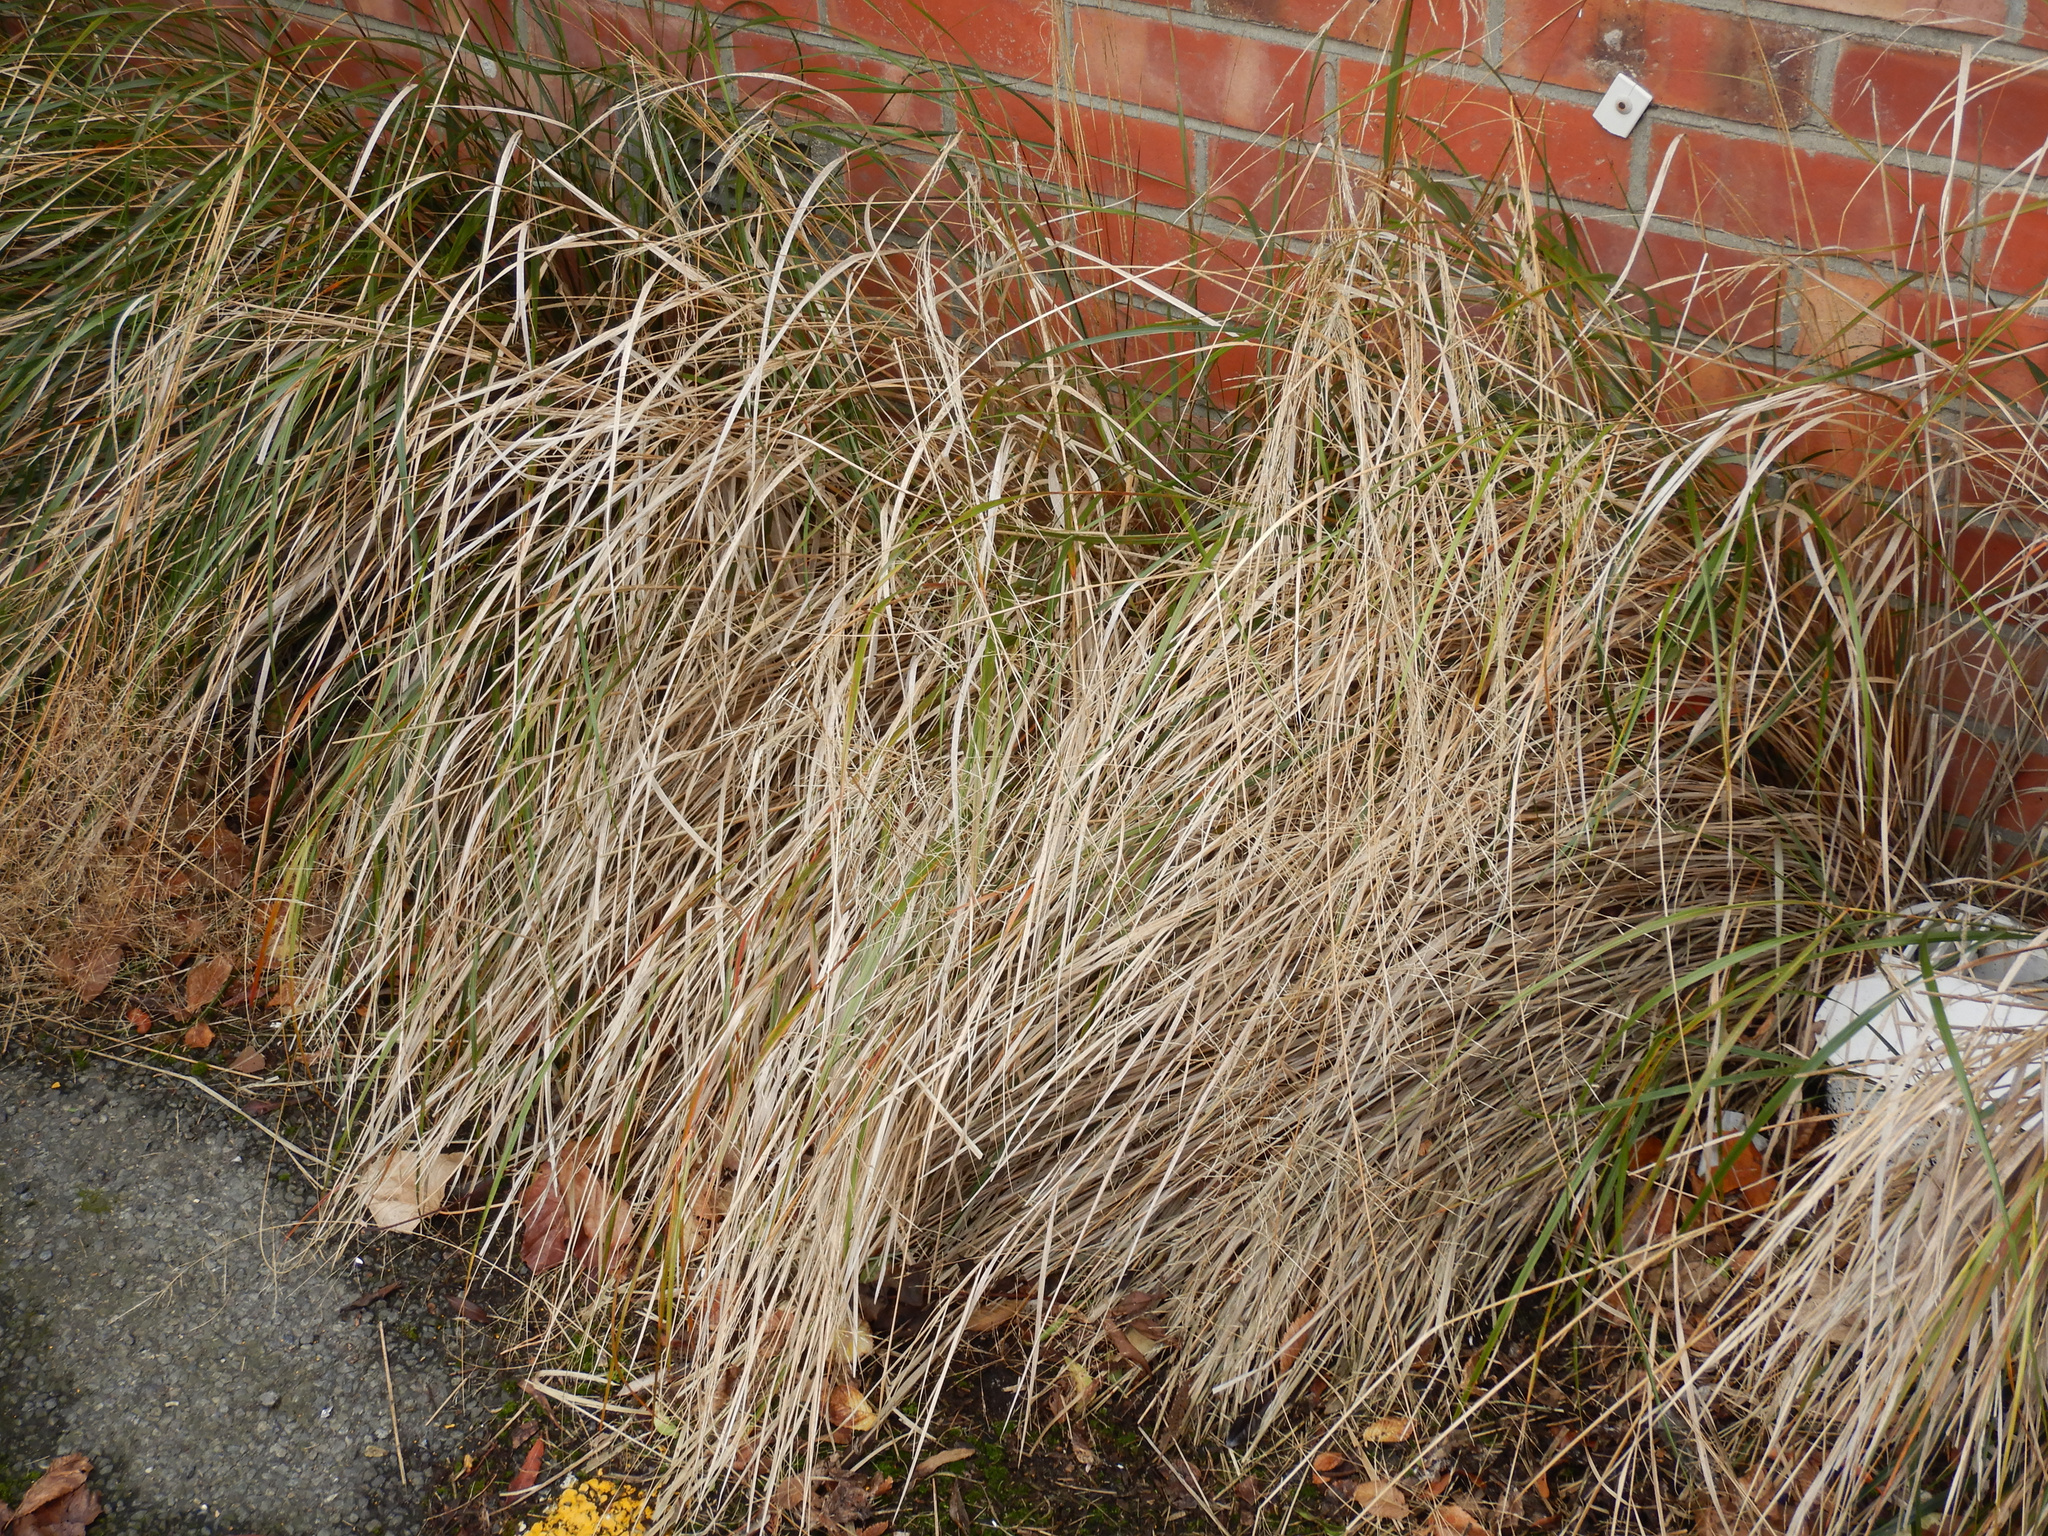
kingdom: Plantae
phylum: Tracheophyta
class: Liliopsida
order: Poales
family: Poaceae
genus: Anemanthele
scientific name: Anemanthele lessoniana
